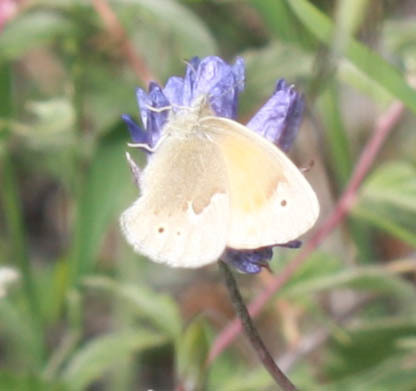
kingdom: Animalia
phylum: Arthropoda
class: Insecta
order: Lepidoptera
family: Nymphalidae
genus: Coenonympha
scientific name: Coenonympha california
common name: Common ringlet
